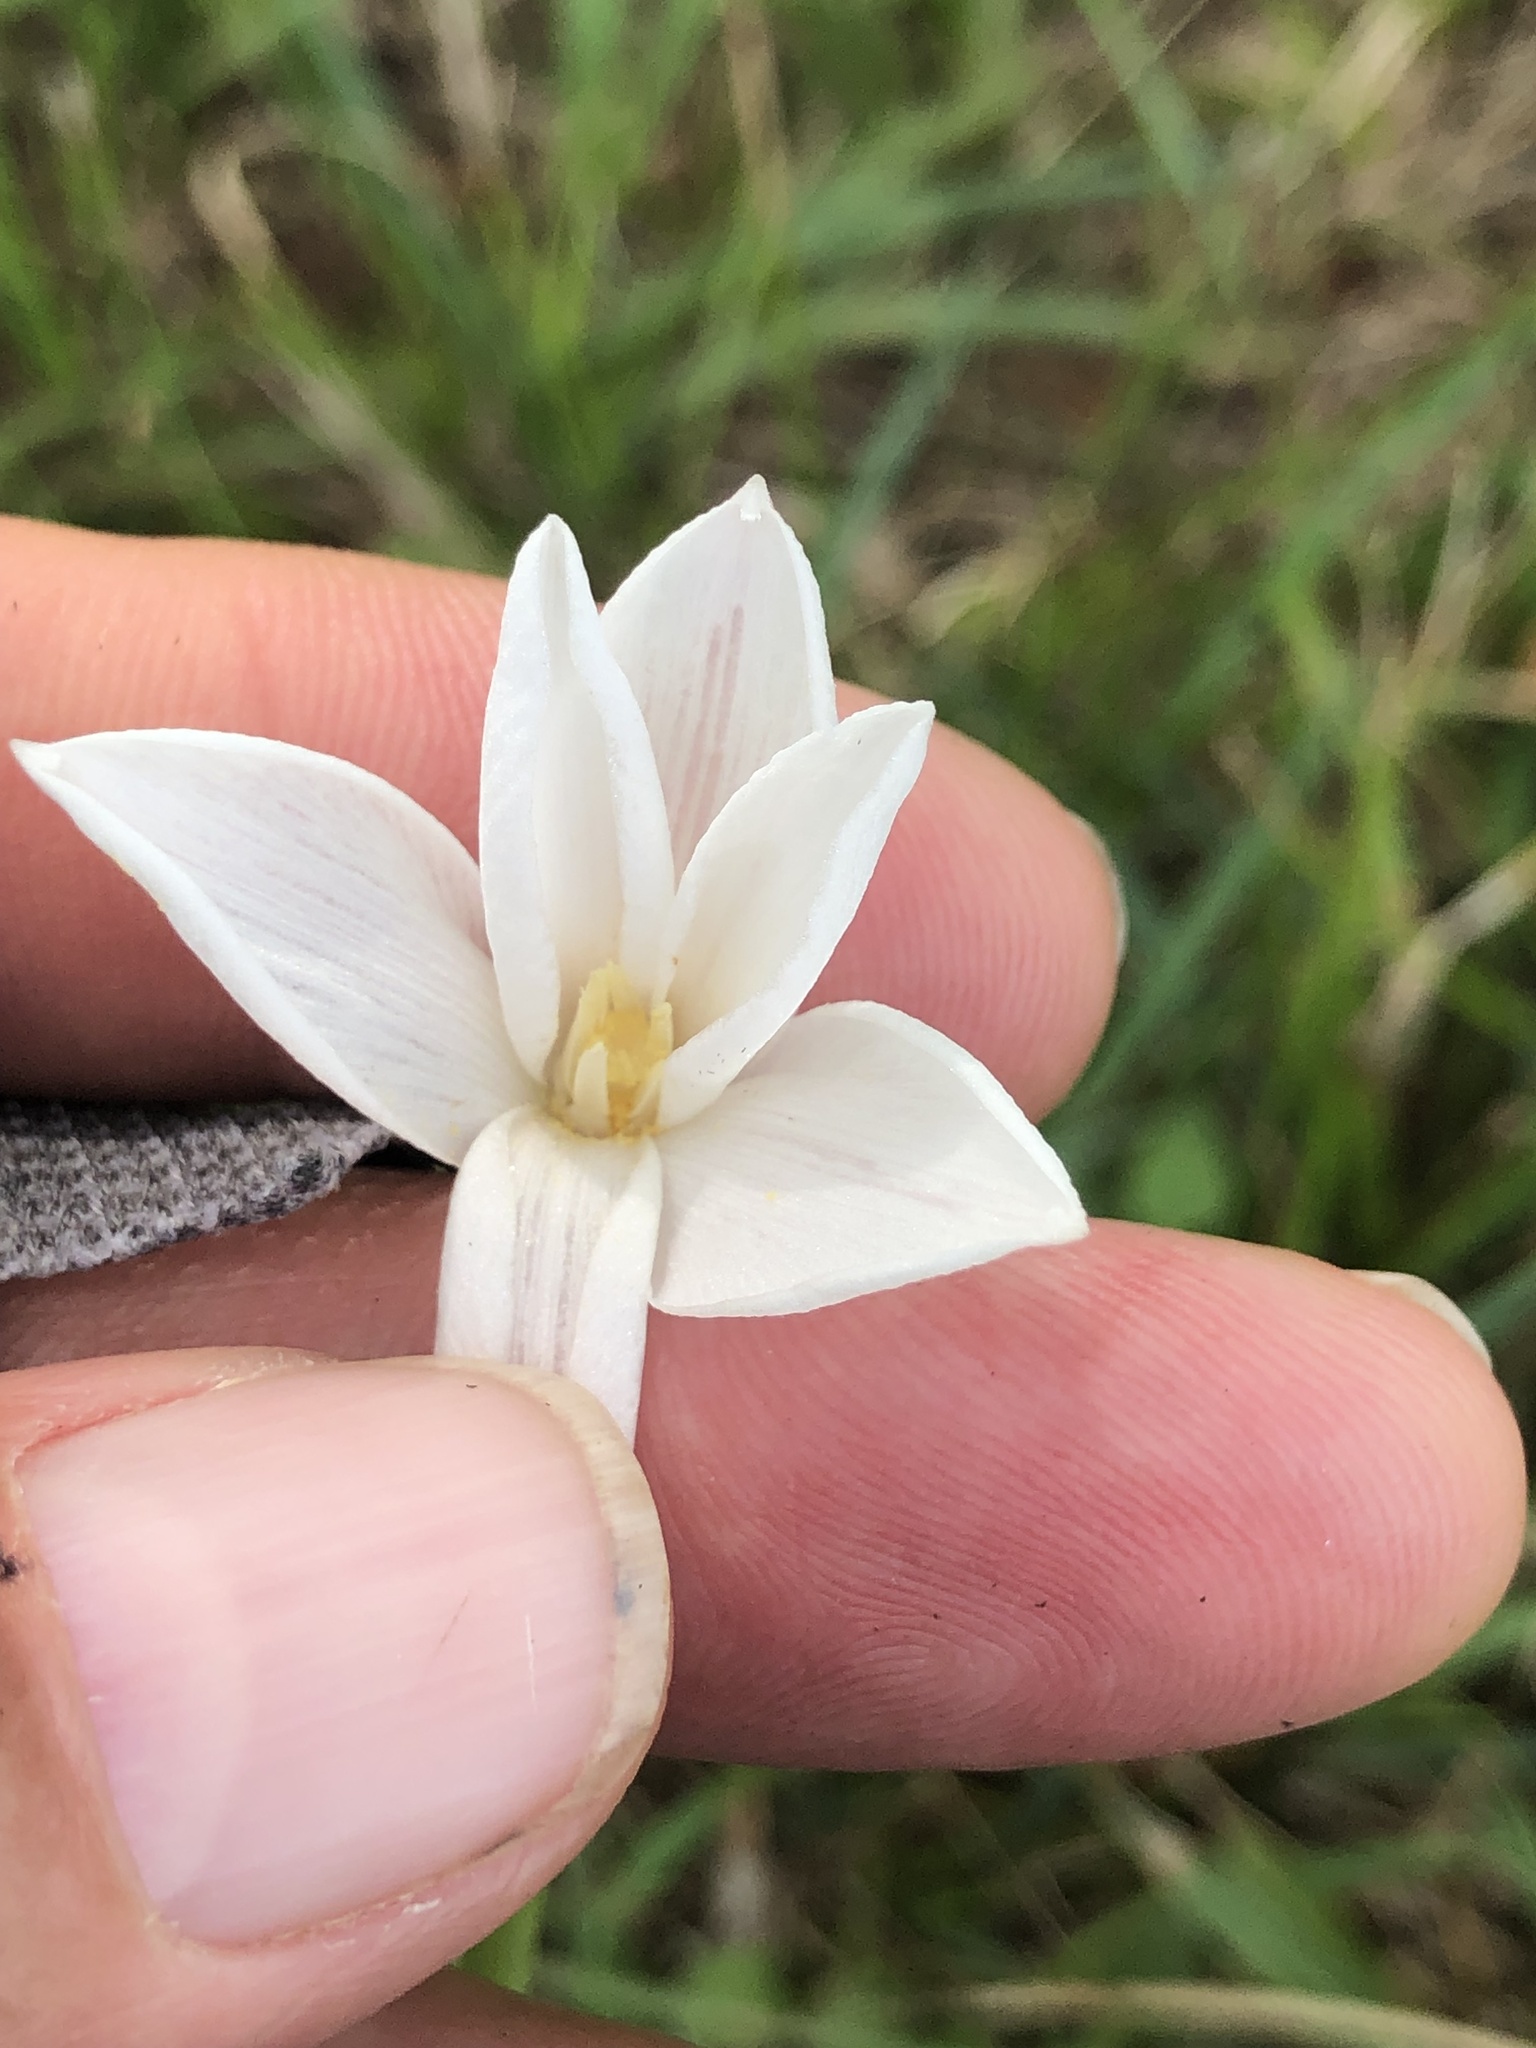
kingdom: Plantae
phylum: Tracheophyta
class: Liliopsida
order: Asparagales
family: Amaryllidaceae
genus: Zephyranthes
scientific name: Zephyranthes chlorosolen
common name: Evening rain-lily
